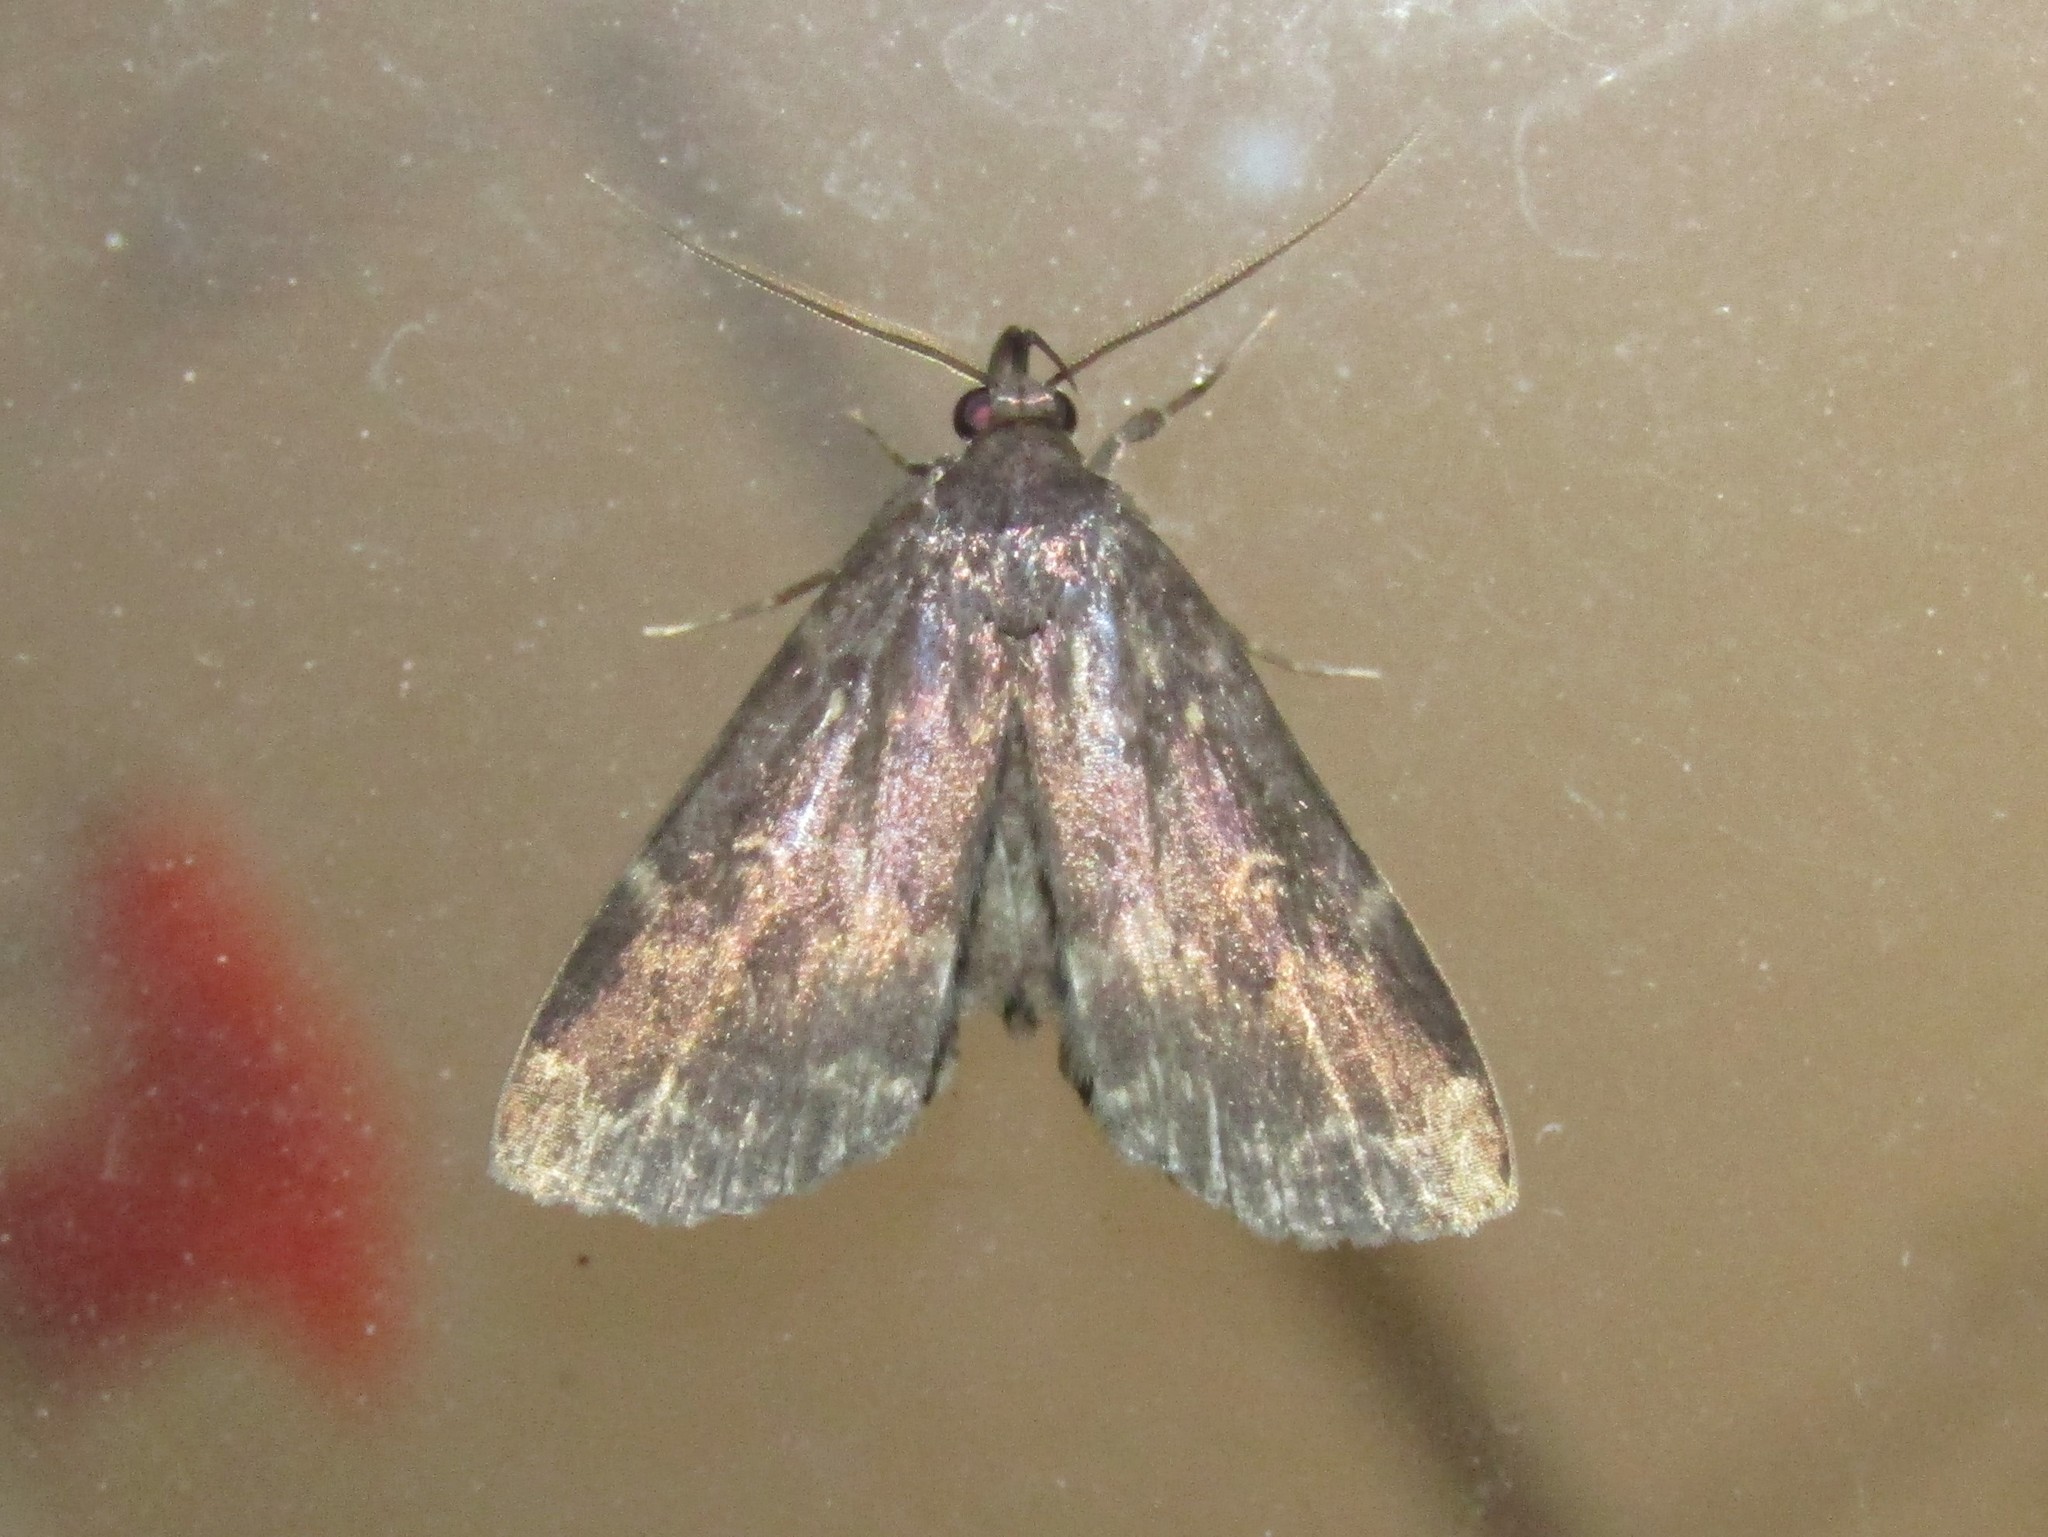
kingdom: Animalia
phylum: Arthropoda
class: Insecta
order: Lepidoptera
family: Erebidae
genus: Idia
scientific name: Idia lubricalis
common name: Twin-striped tabby
